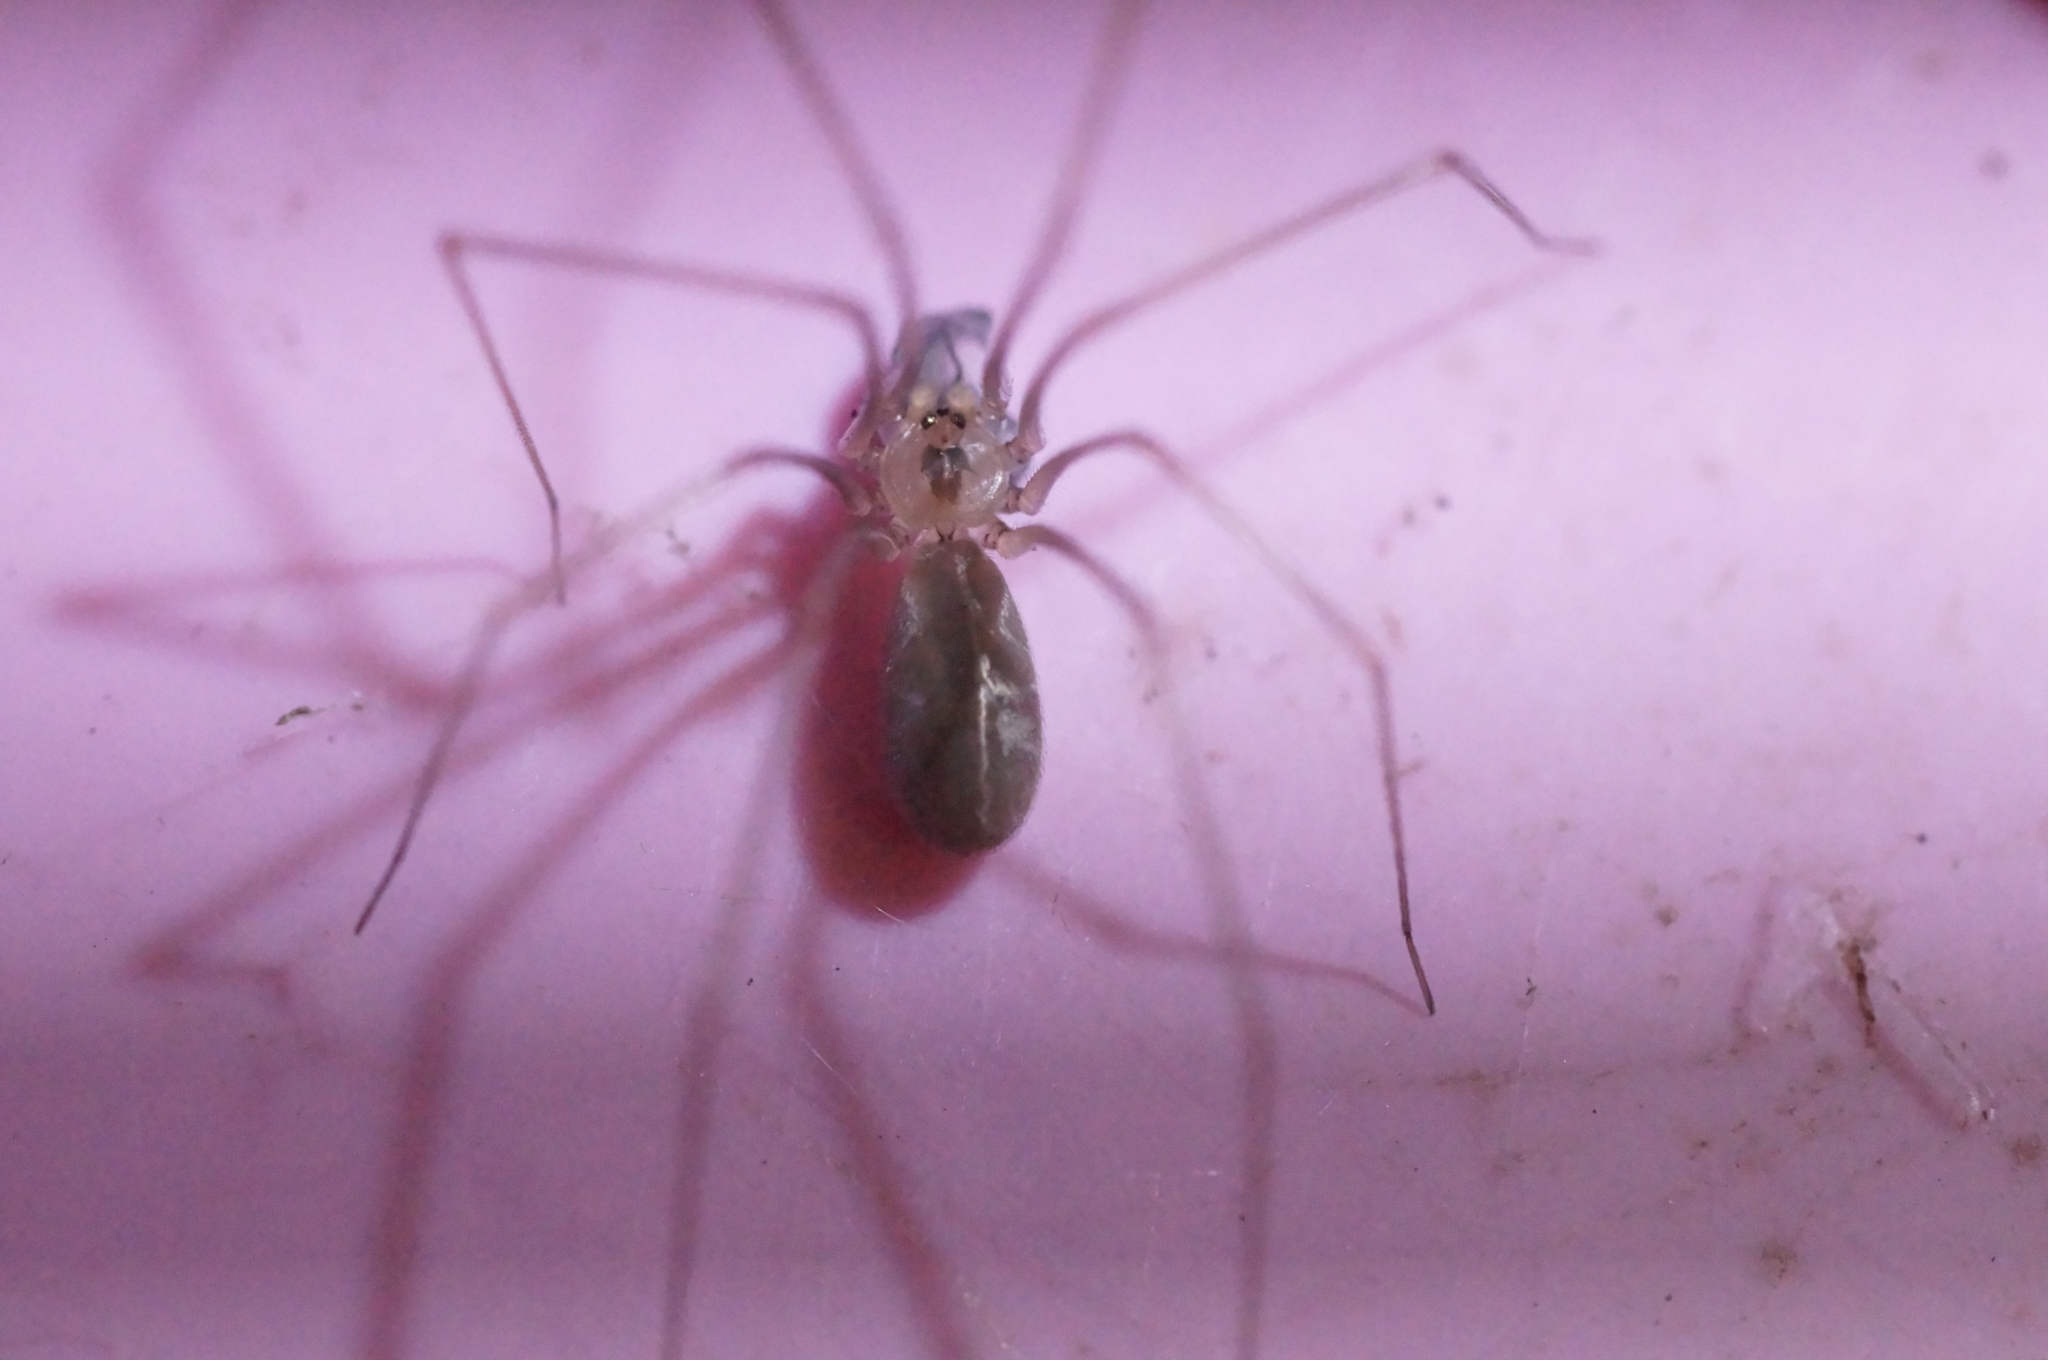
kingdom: Animalia
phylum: Arthropoda
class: Arachnida
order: Araneae
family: Pholcidae
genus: Pholcus
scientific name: Pholcus ponticus
